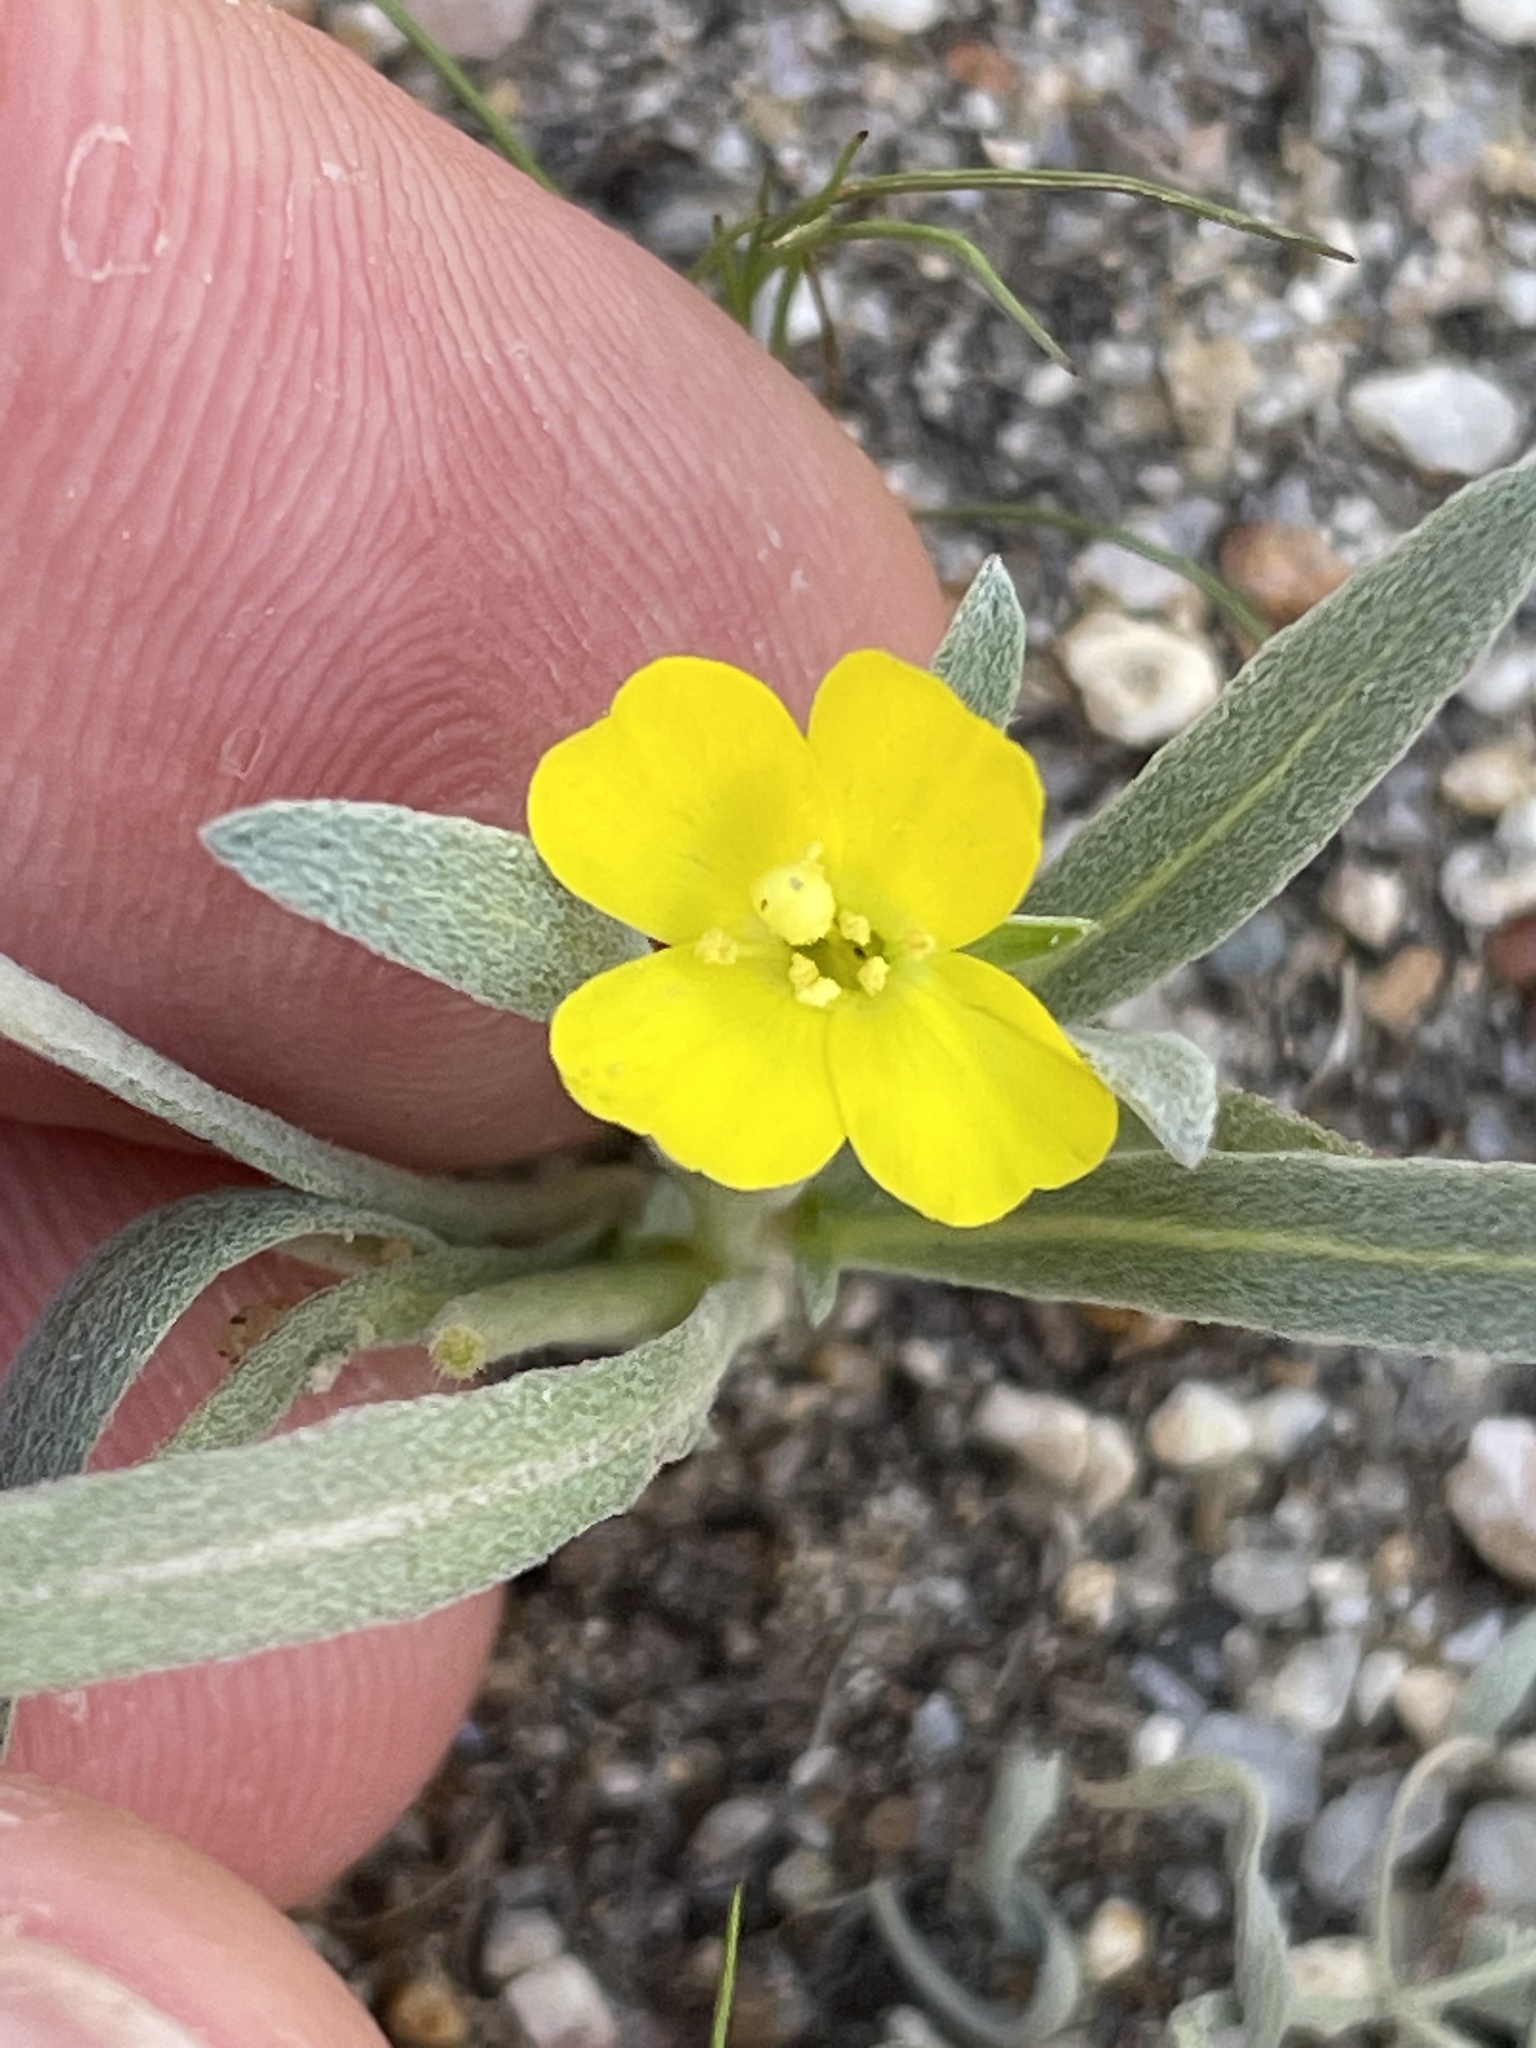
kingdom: Plantae
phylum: Tracheophyta
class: Magnoliopsida
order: Myrtales
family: Onagraceae
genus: Camissoniopsis
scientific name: Camissoniopsis pallida
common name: Paleyellow suncup
